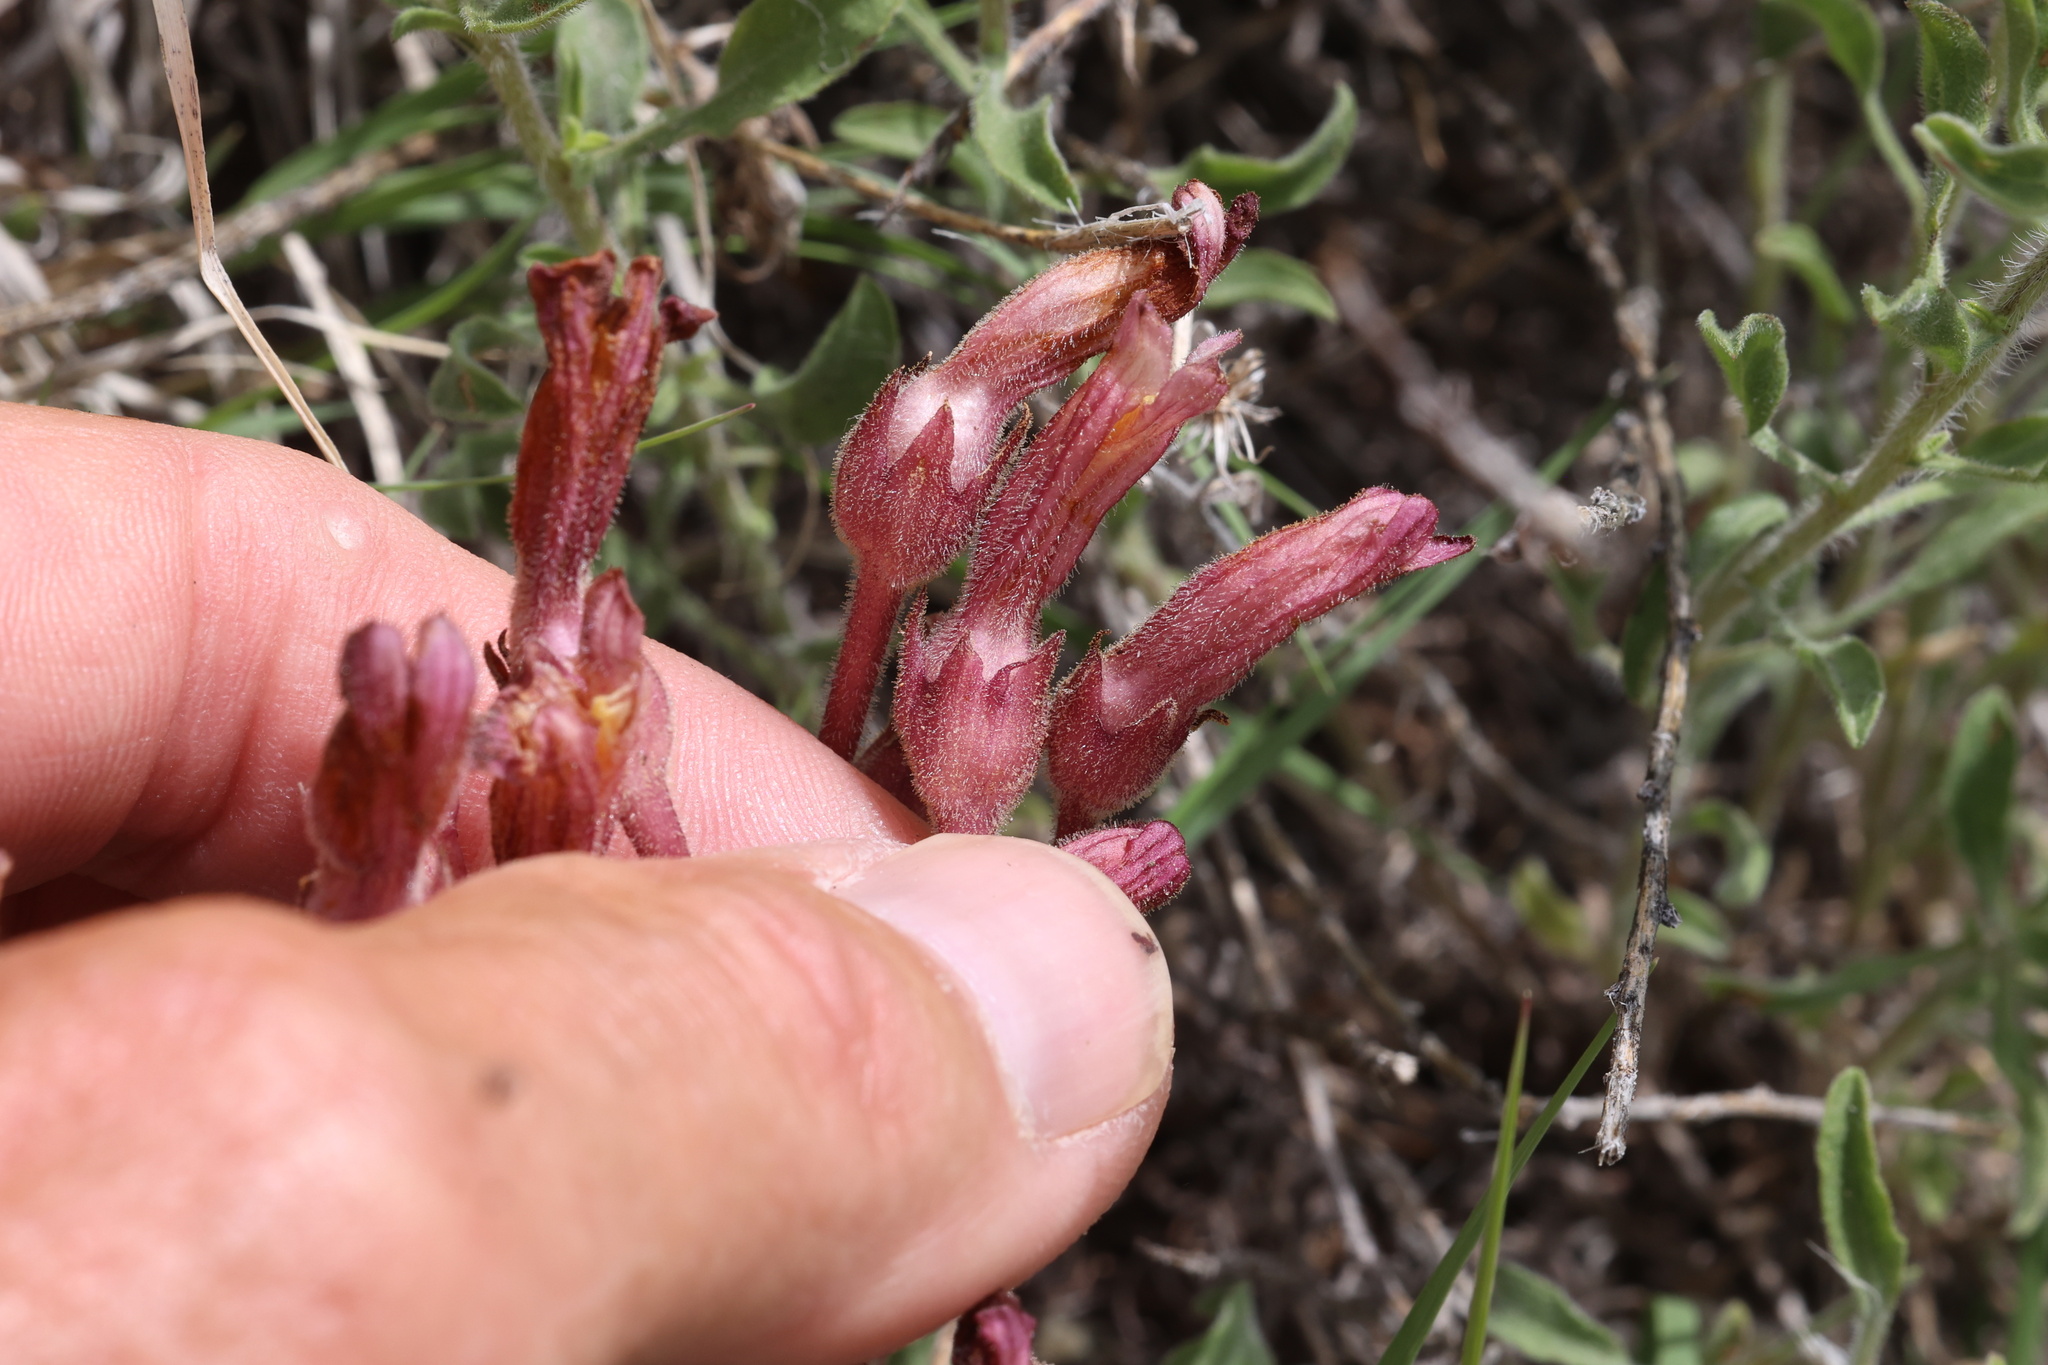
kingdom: Plantae
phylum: Tracheophyta
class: Magnoliopsida
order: Lamiales
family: Orobanchaceae
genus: Aphyllon
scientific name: Aphyllon fasciculatum
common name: Clustered broomrape
